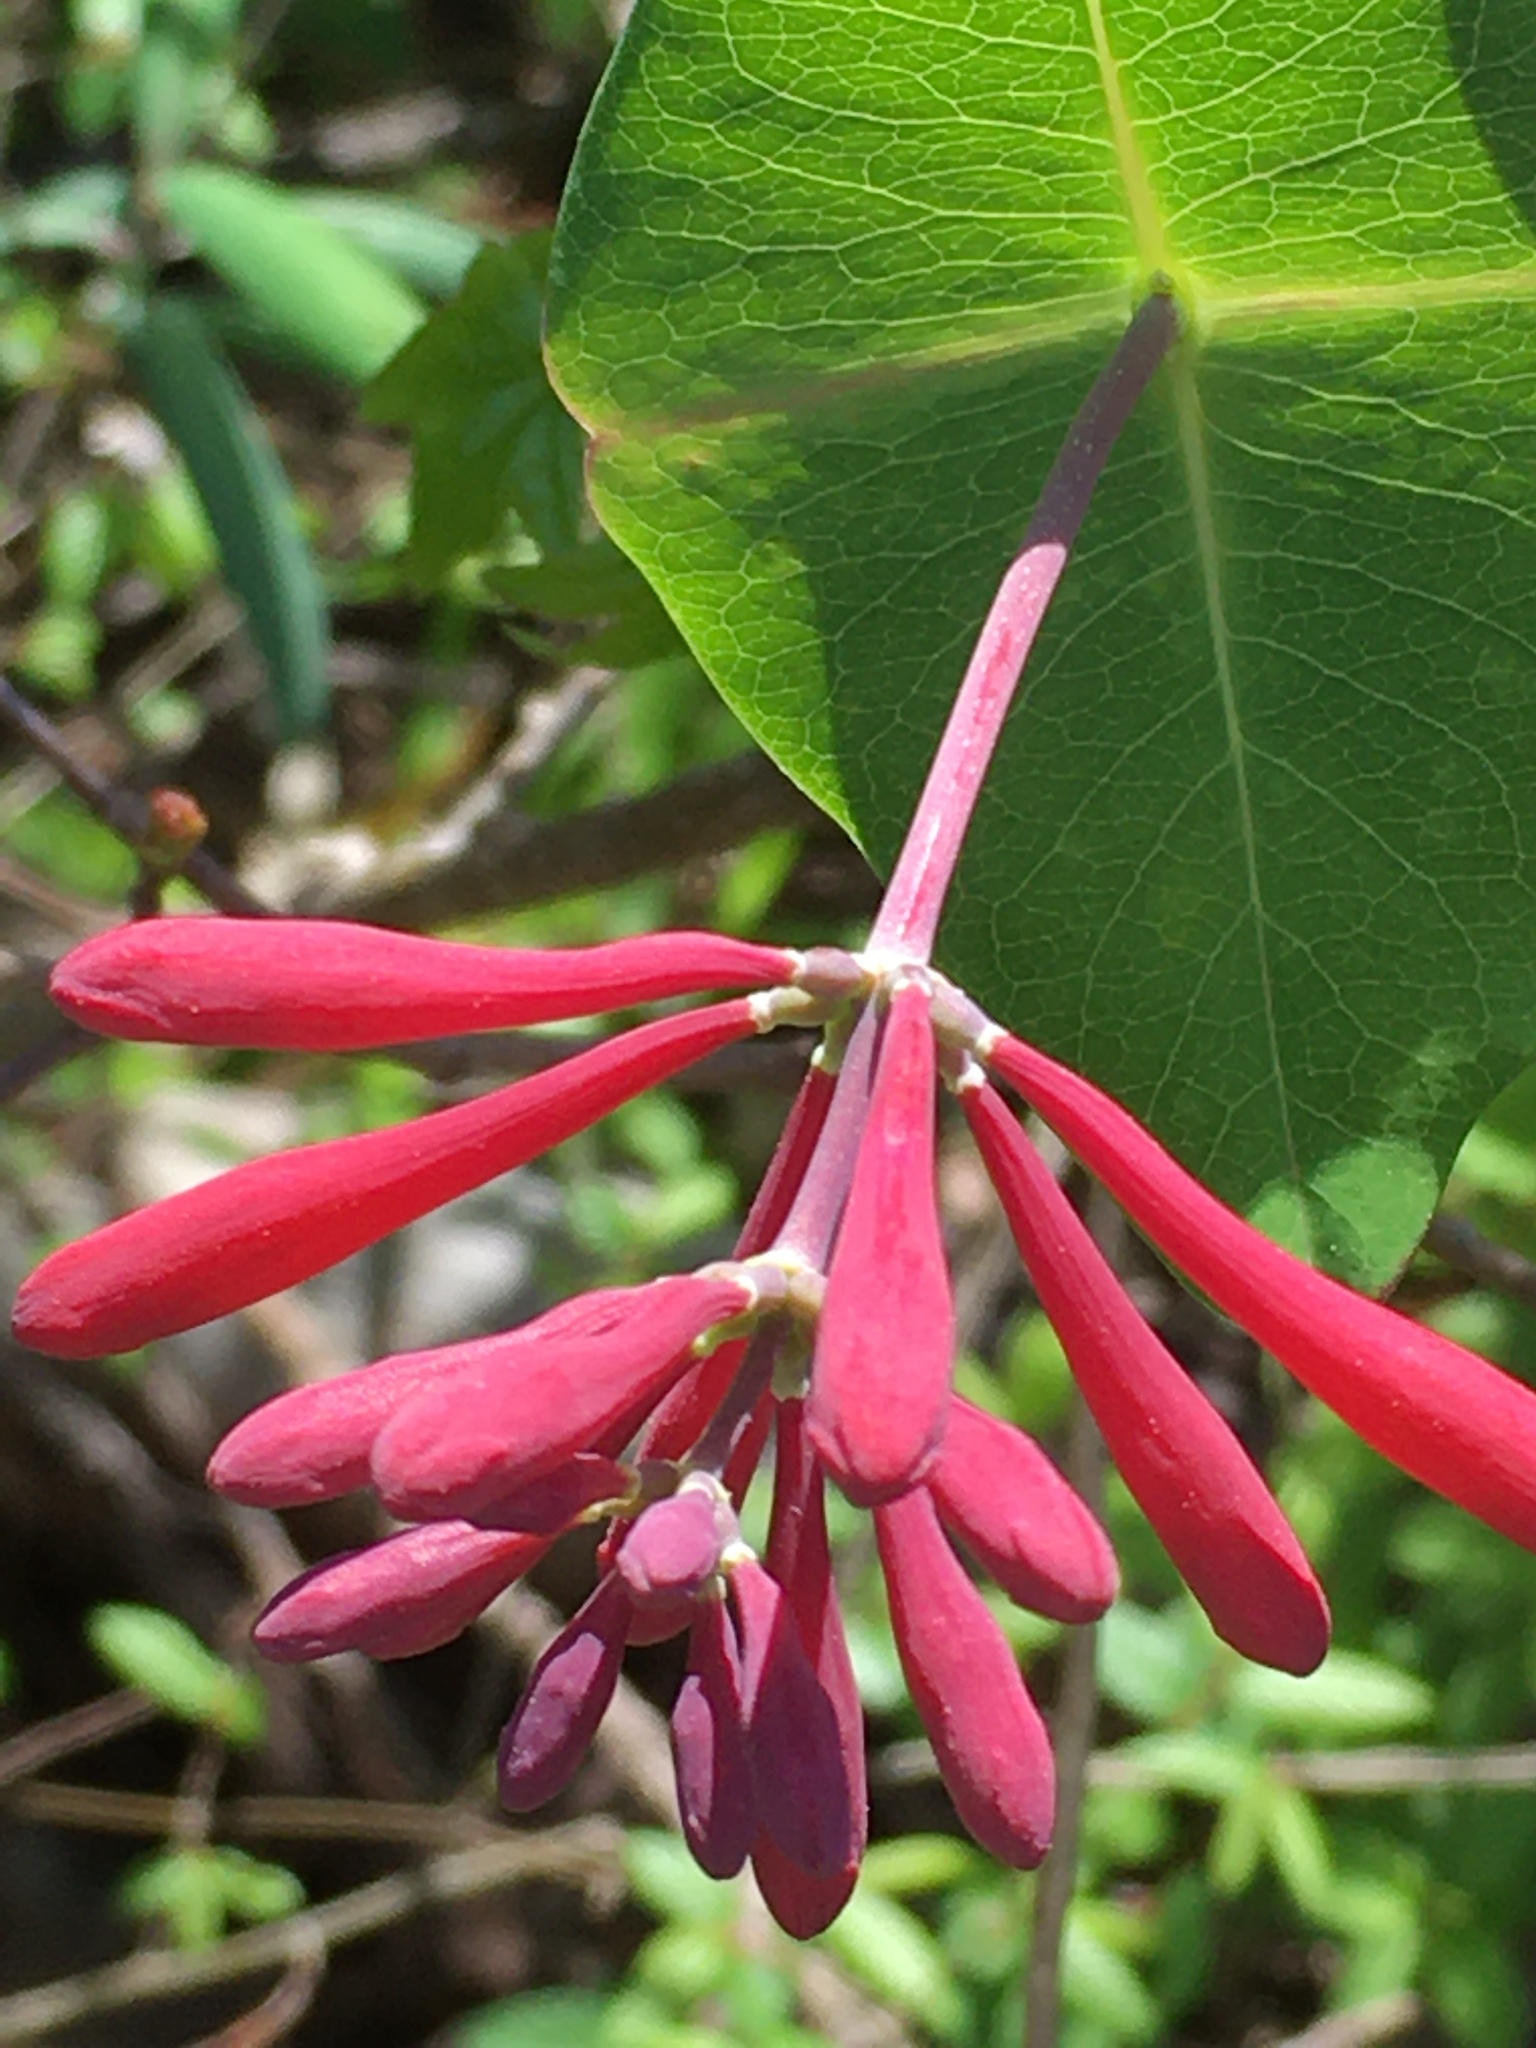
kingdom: Plantae
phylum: Tracheophyta
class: Magnoliopsida
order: Dipsacales
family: Caprifoliaceae
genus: Lonicera
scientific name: Lonicera sempervirens
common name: Coral honeysuckle
